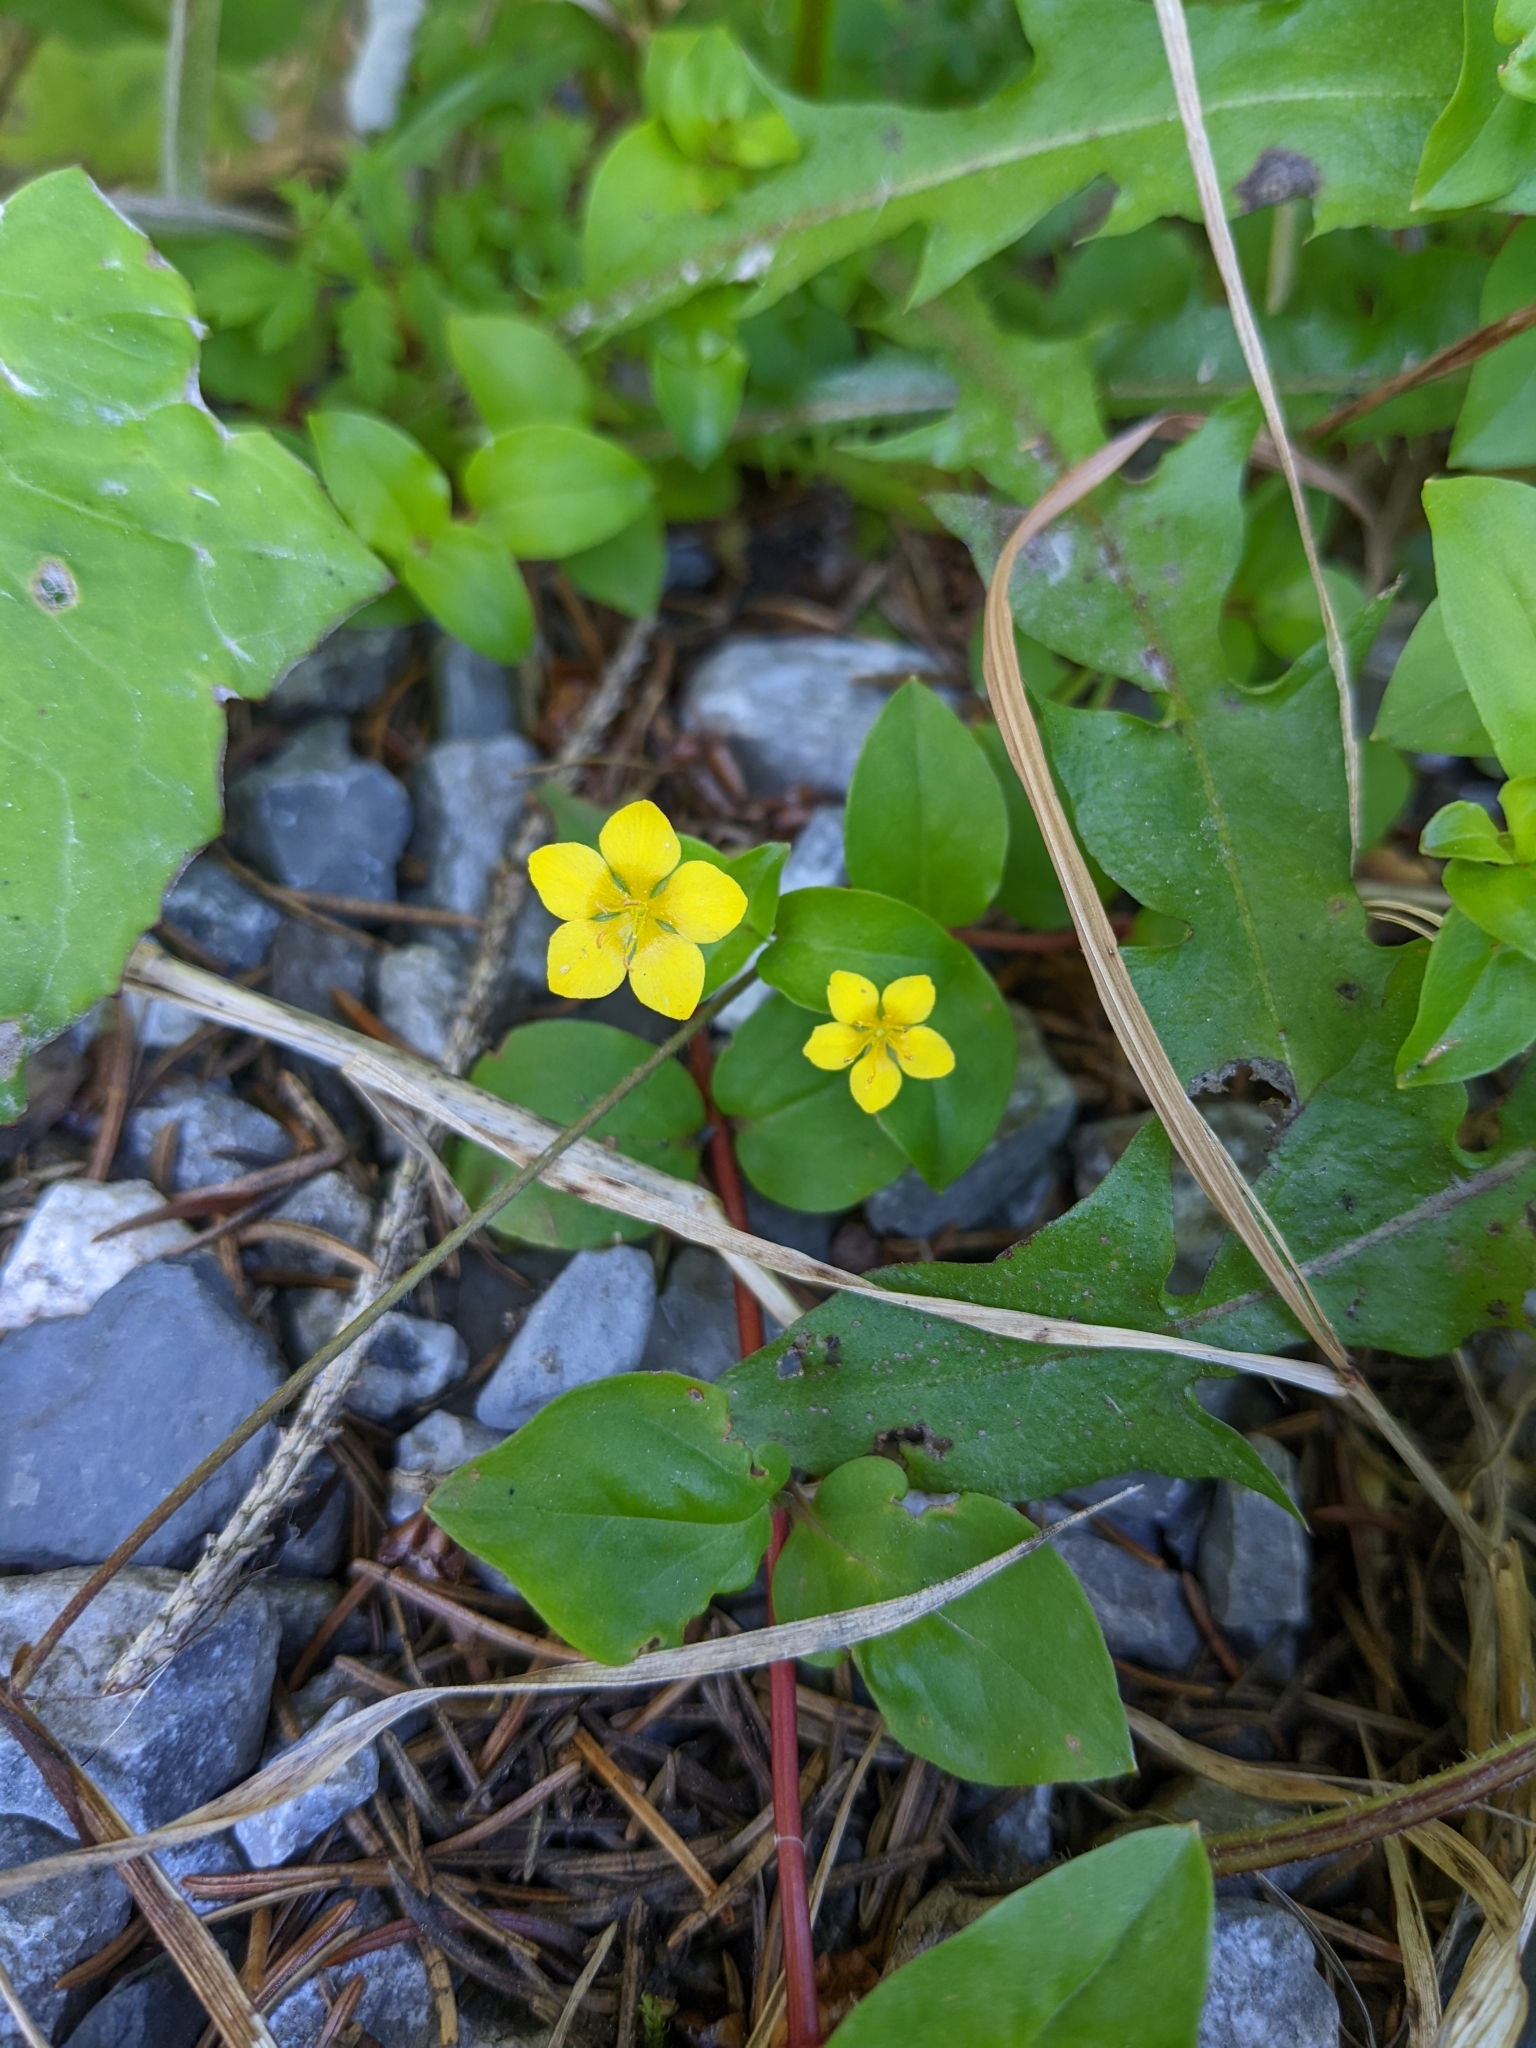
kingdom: Plantae
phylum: Tracheophyta
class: Magnoliopsida
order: Ericales
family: Primulaceae
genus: Lysimachia
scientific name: Lysimachia nemorum
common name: Yellow pimpernel
